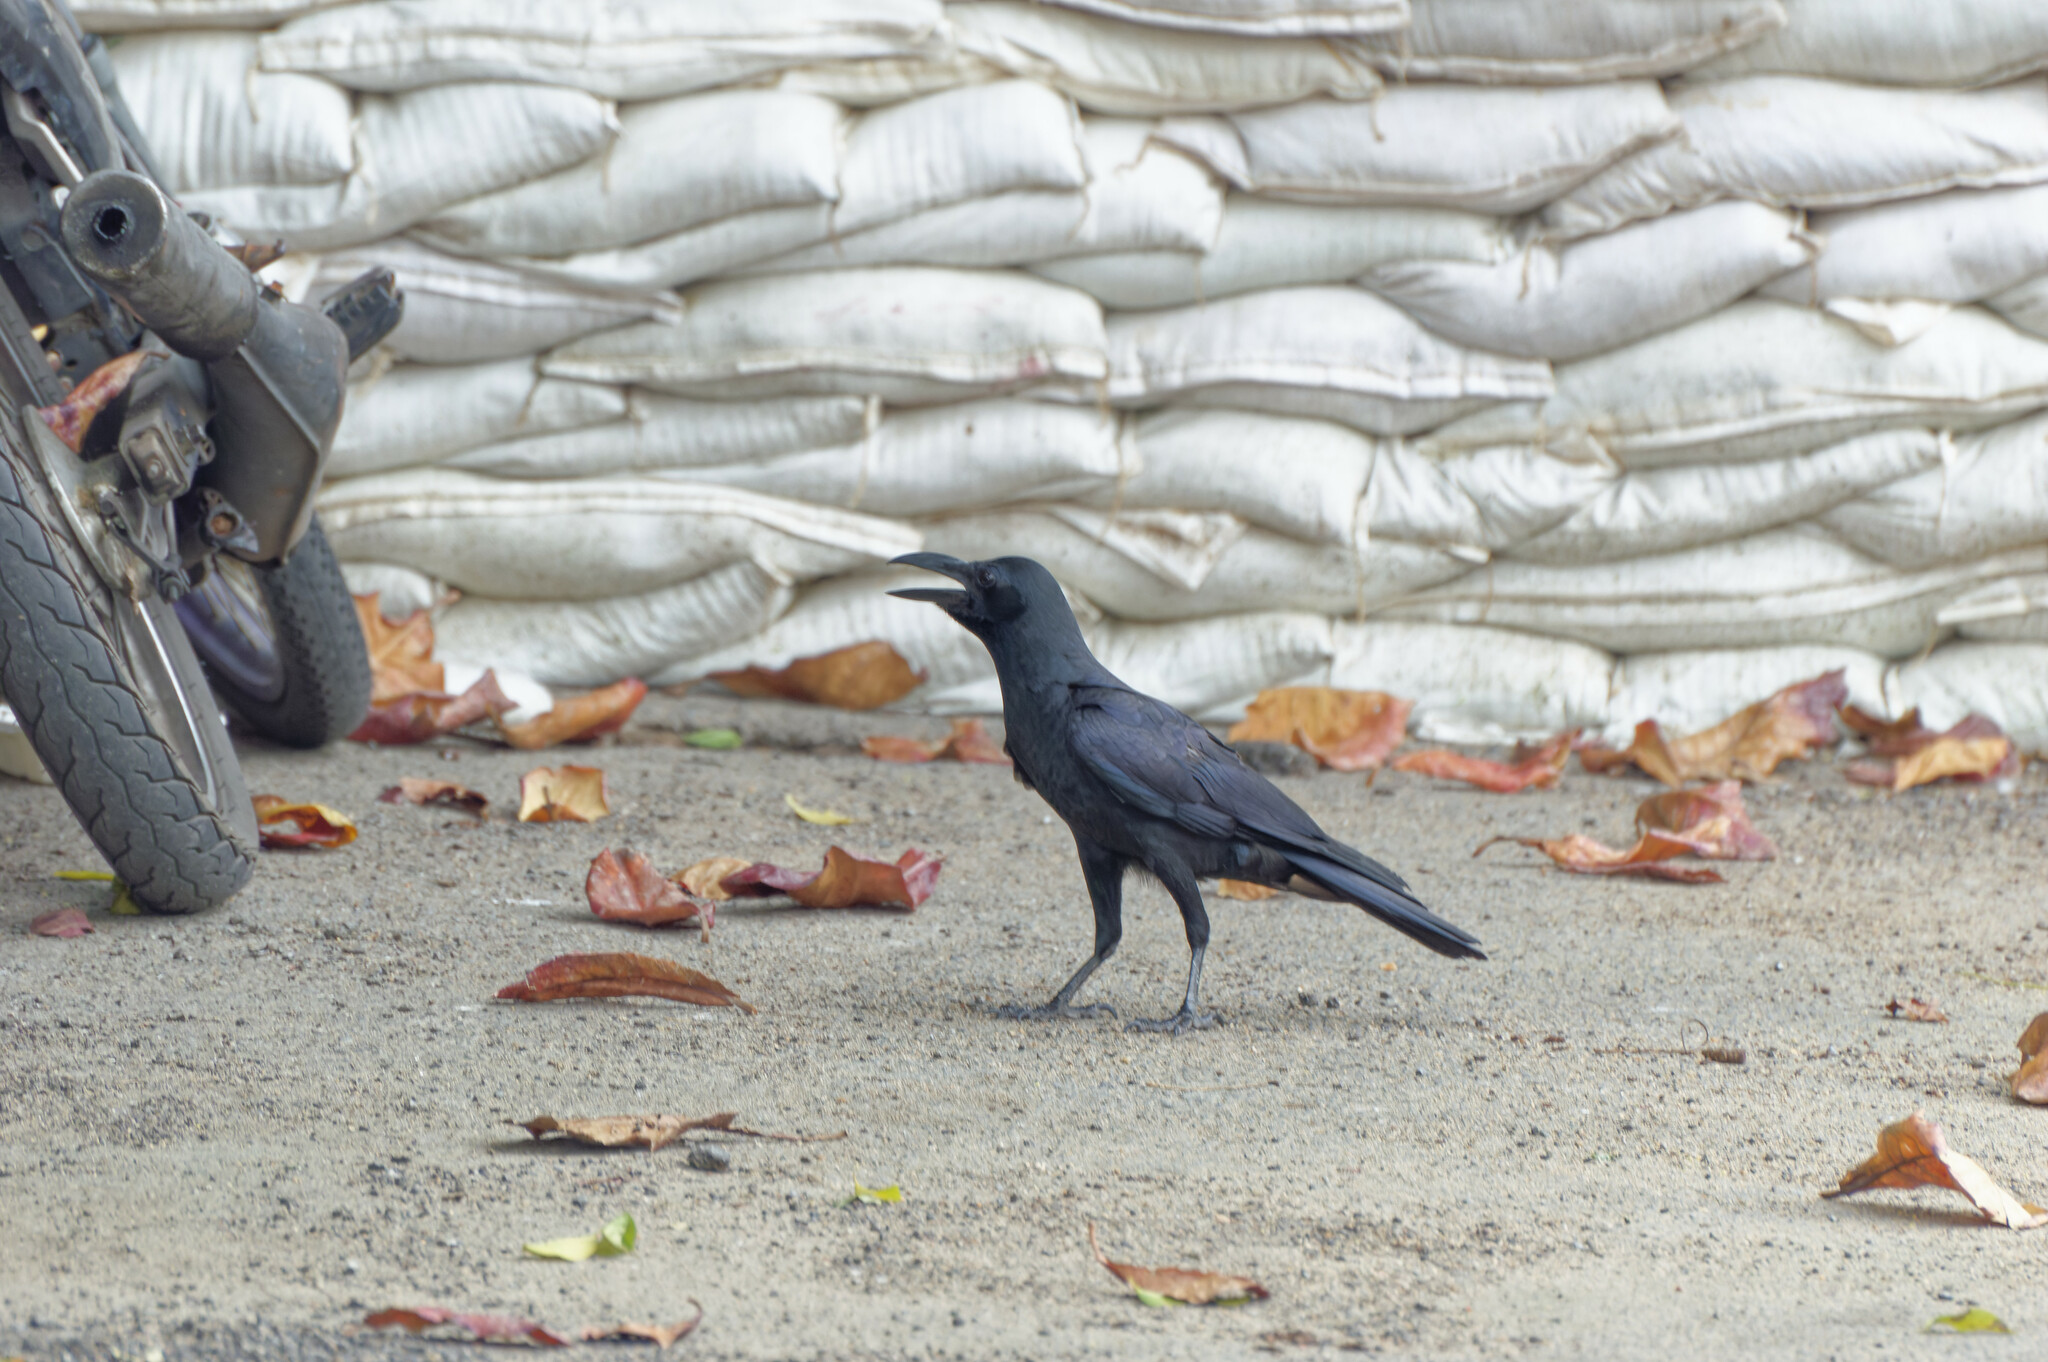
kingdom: Animalia
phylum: Chordata
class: Aves
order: Passeriformes
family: Corvidae
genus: Corvus
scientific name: Corvus macrorhynchos
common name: Large-billed crow
